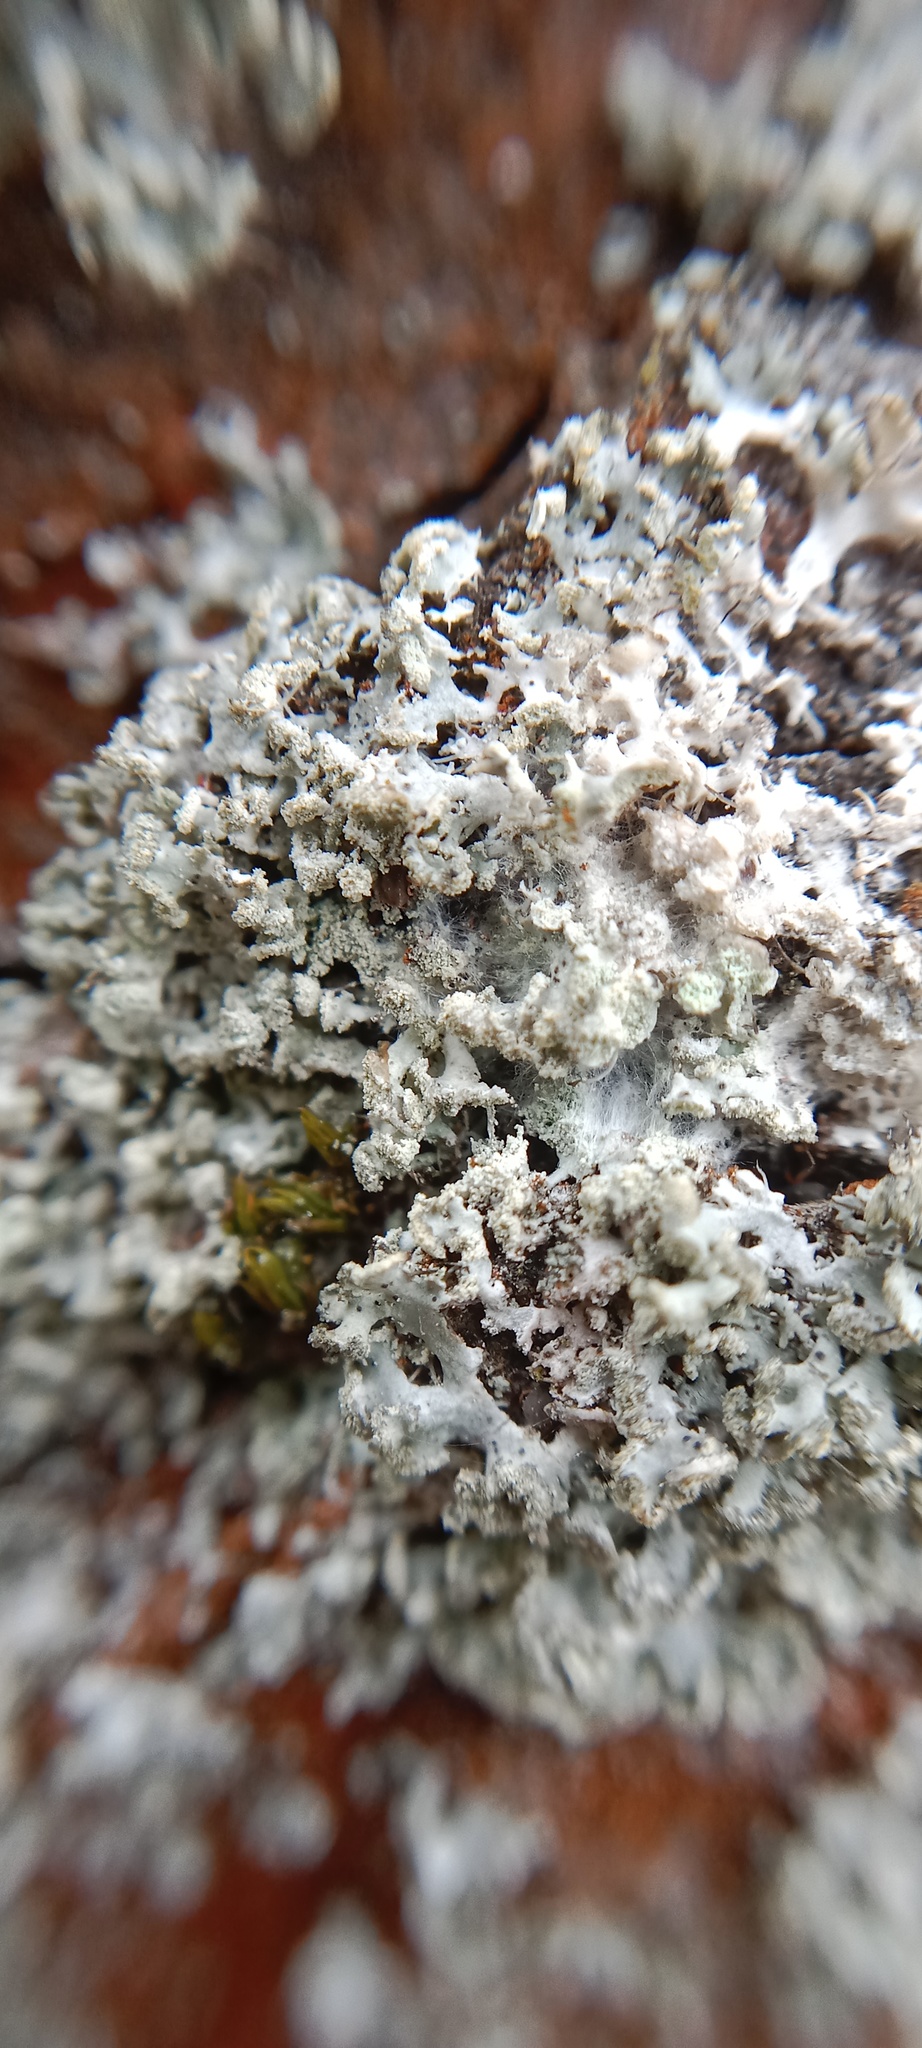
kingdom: Fungi
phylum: Ascomycota
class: Lecanoromycetes
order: Caliciales
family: Physciaceae
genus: Physcia
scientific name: Physcia tenella
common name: Fringed rosette lichen
